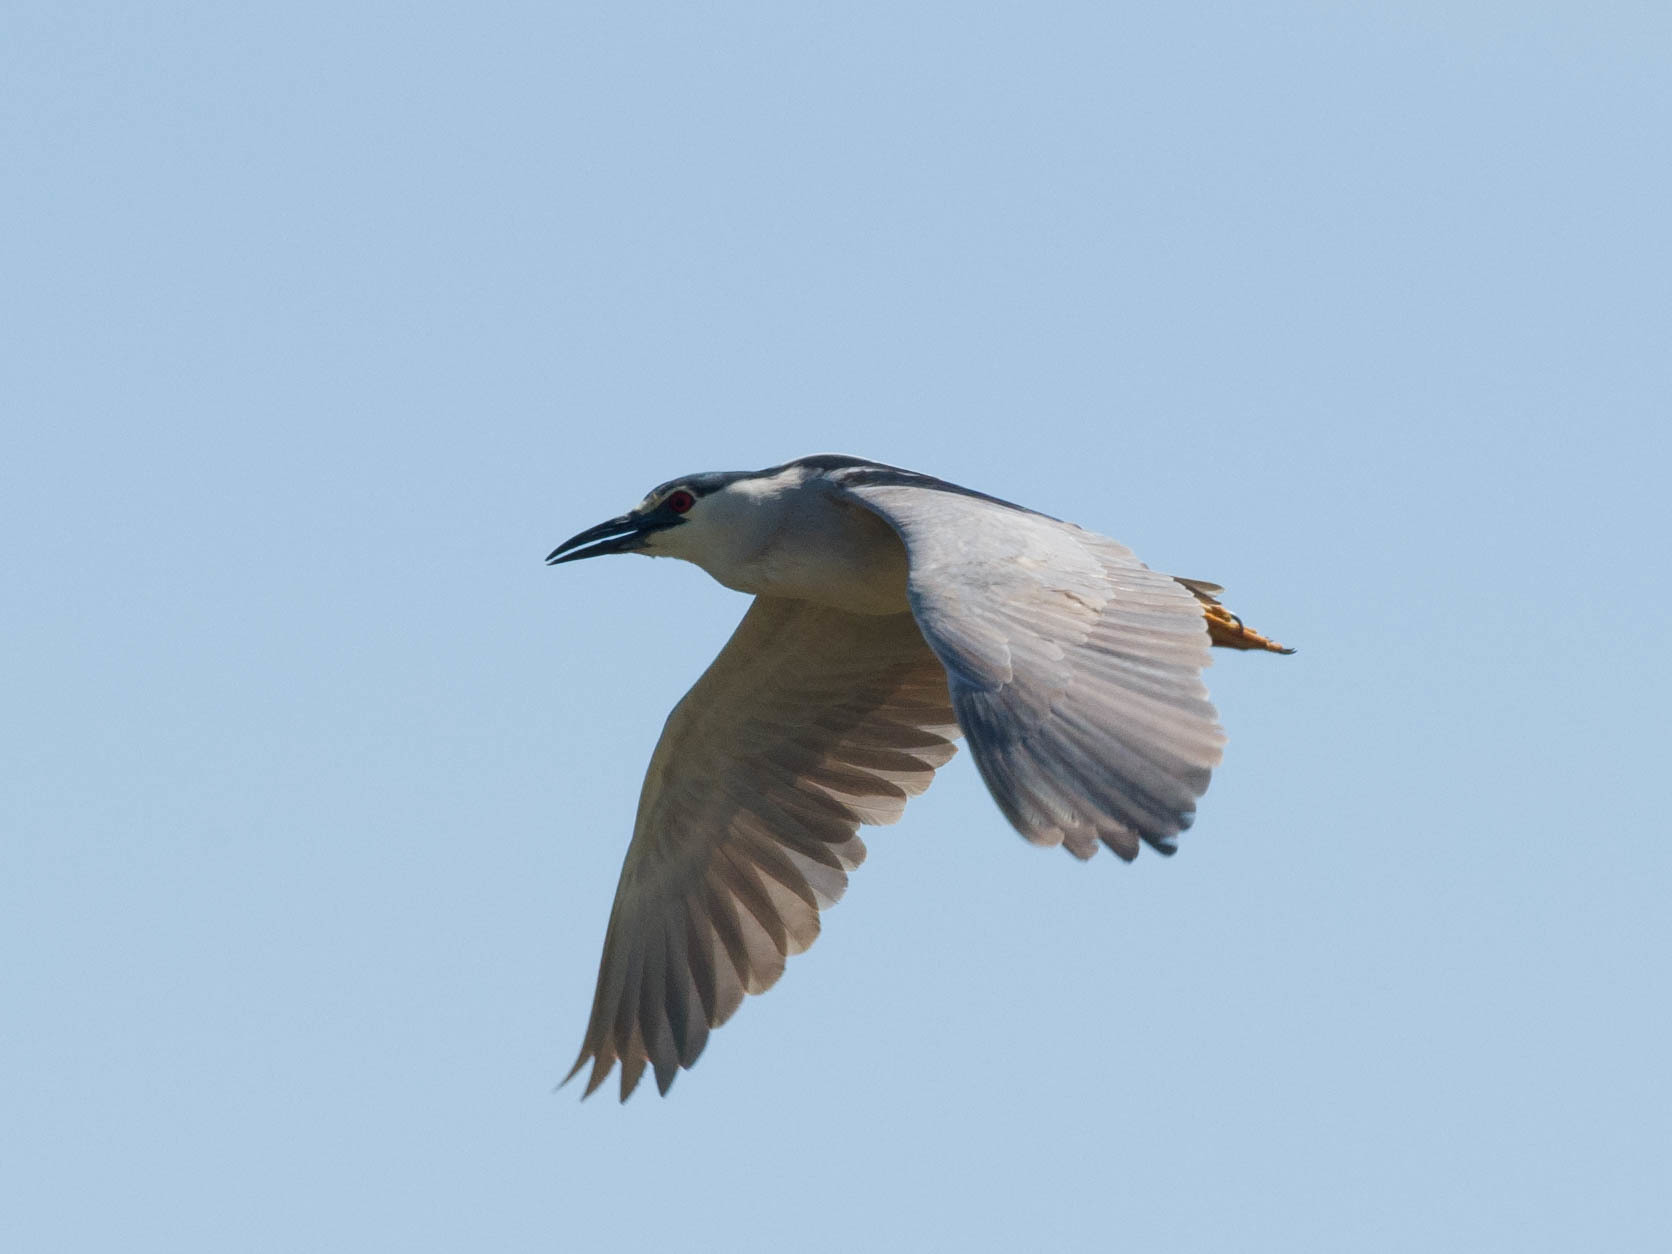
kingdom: Animalia
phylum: Chordata
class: Aves
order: Pelecaniformes
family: Ardeidae
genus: Nycticorax
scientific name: Nycticorax nycticorax
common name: Black-crowned night heron
